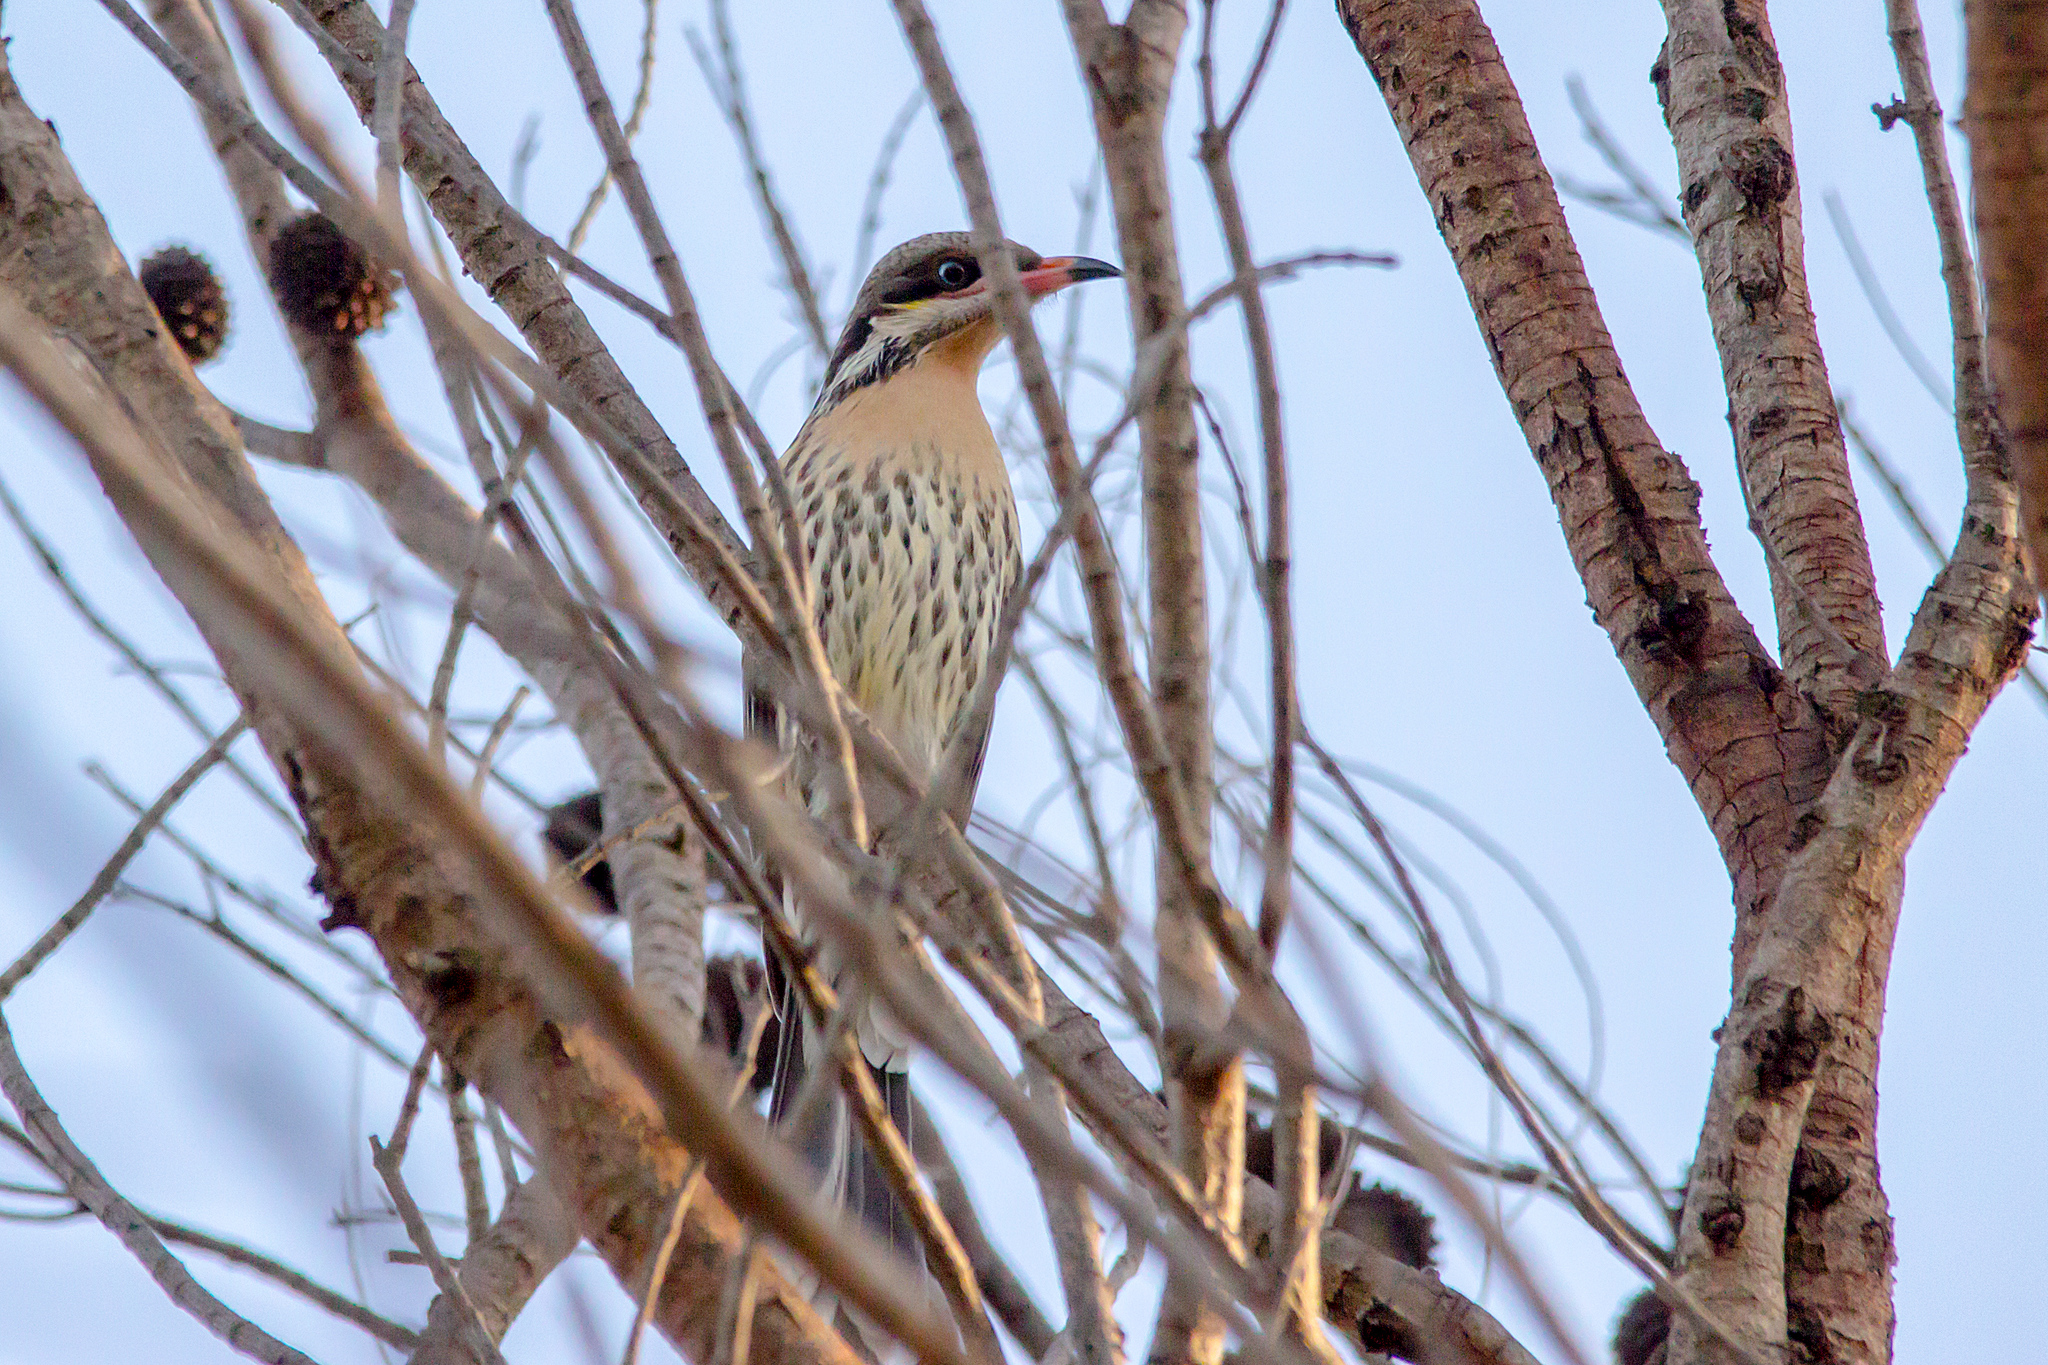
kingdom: Animalia
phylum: Chordata
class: Aves
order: Passeriformes
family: Meliphagidae
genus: Acanthagenys
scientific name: Acanthagenys rufogularis
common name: Spiny-cheeked honeyeater
